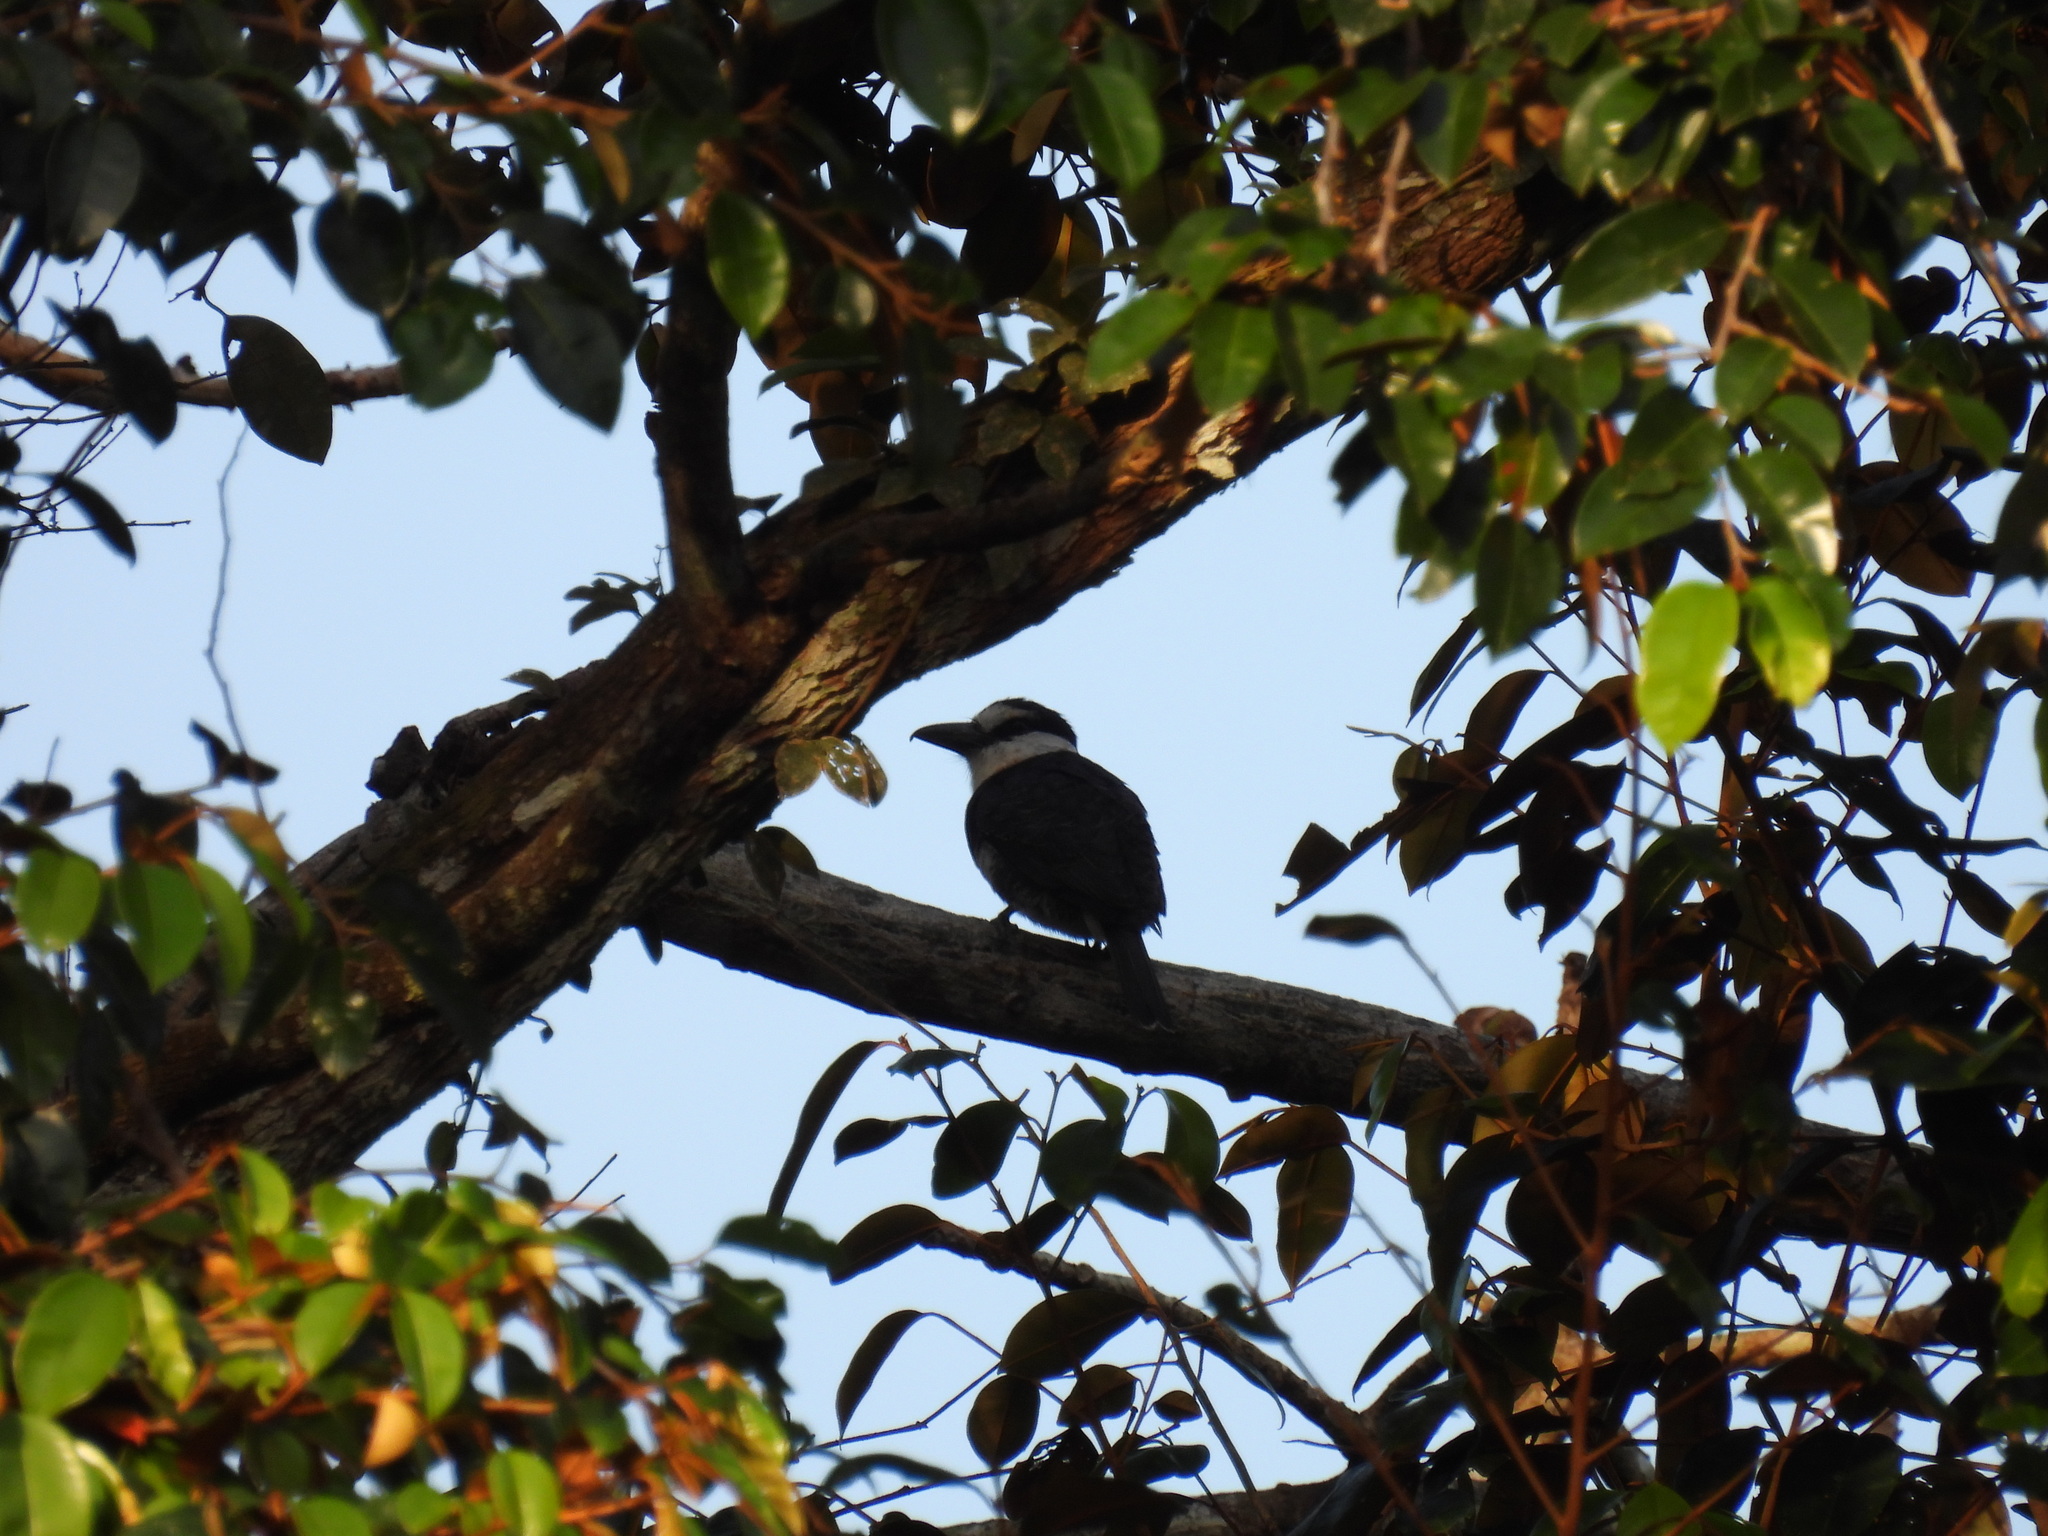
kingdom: Animalia
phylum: Chordata
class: Aves
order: Piciformes
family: Bucconidae
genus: Notharchus
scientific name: Notharchus hyperrhynchus
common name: White-necked puffbird
